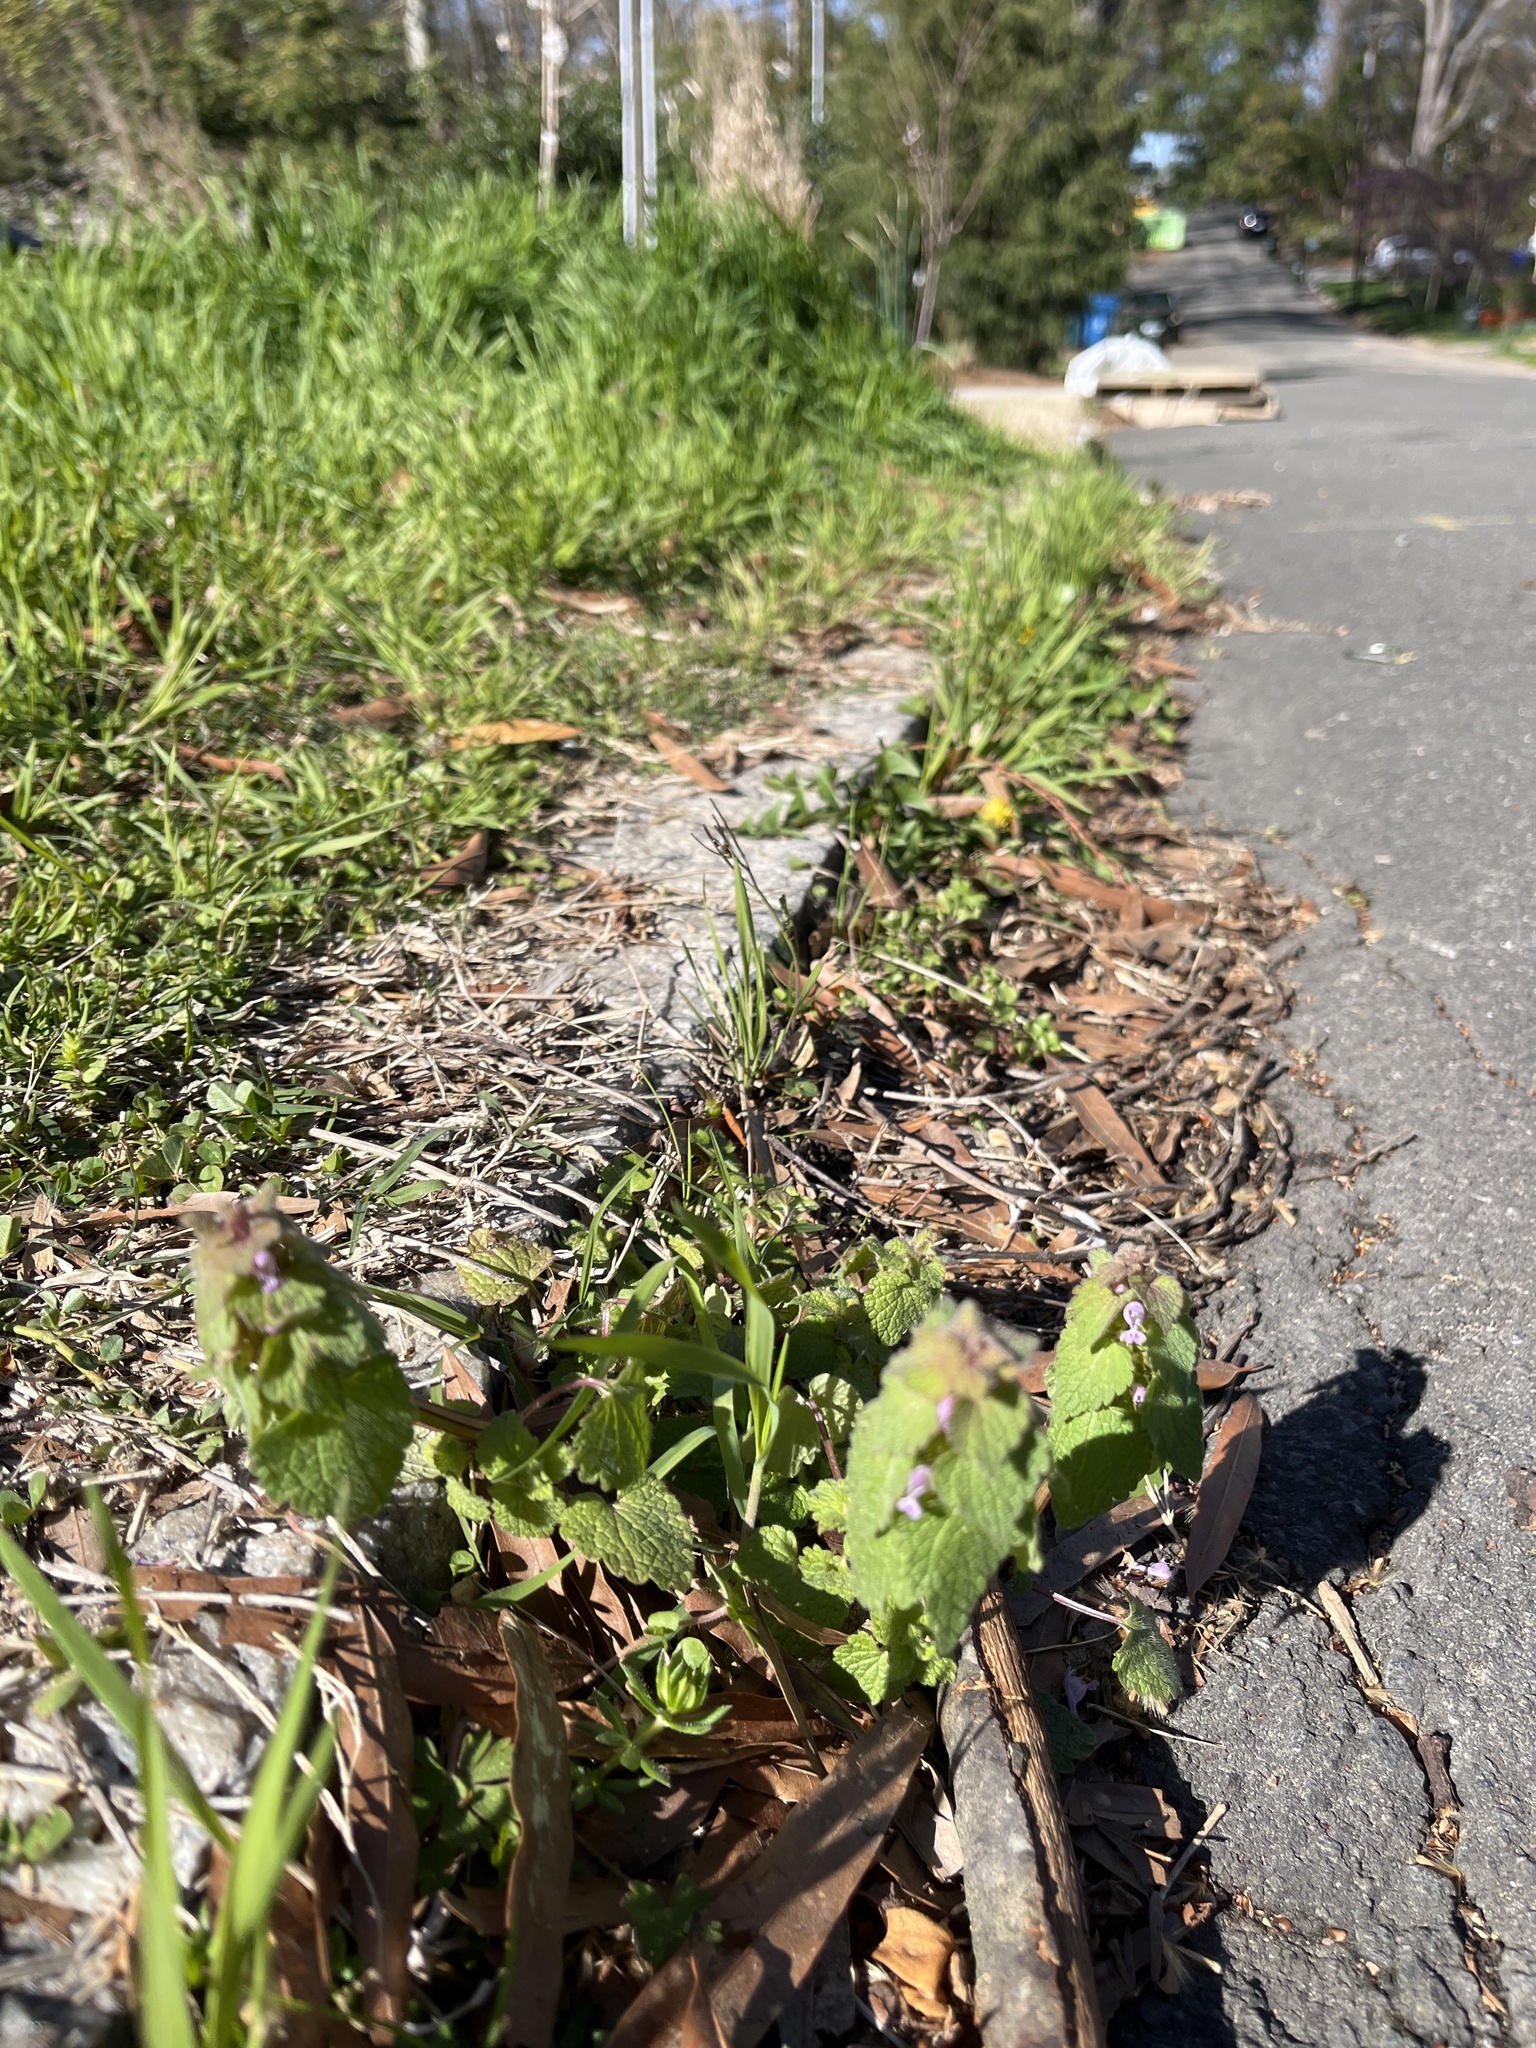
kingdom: Plantae
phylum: Tracheophyta
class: Magnoliopsida
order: Lamiales
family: Lamiaceae
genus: Lamium
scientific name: Lamium purpureum
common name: Red dead-nettle
